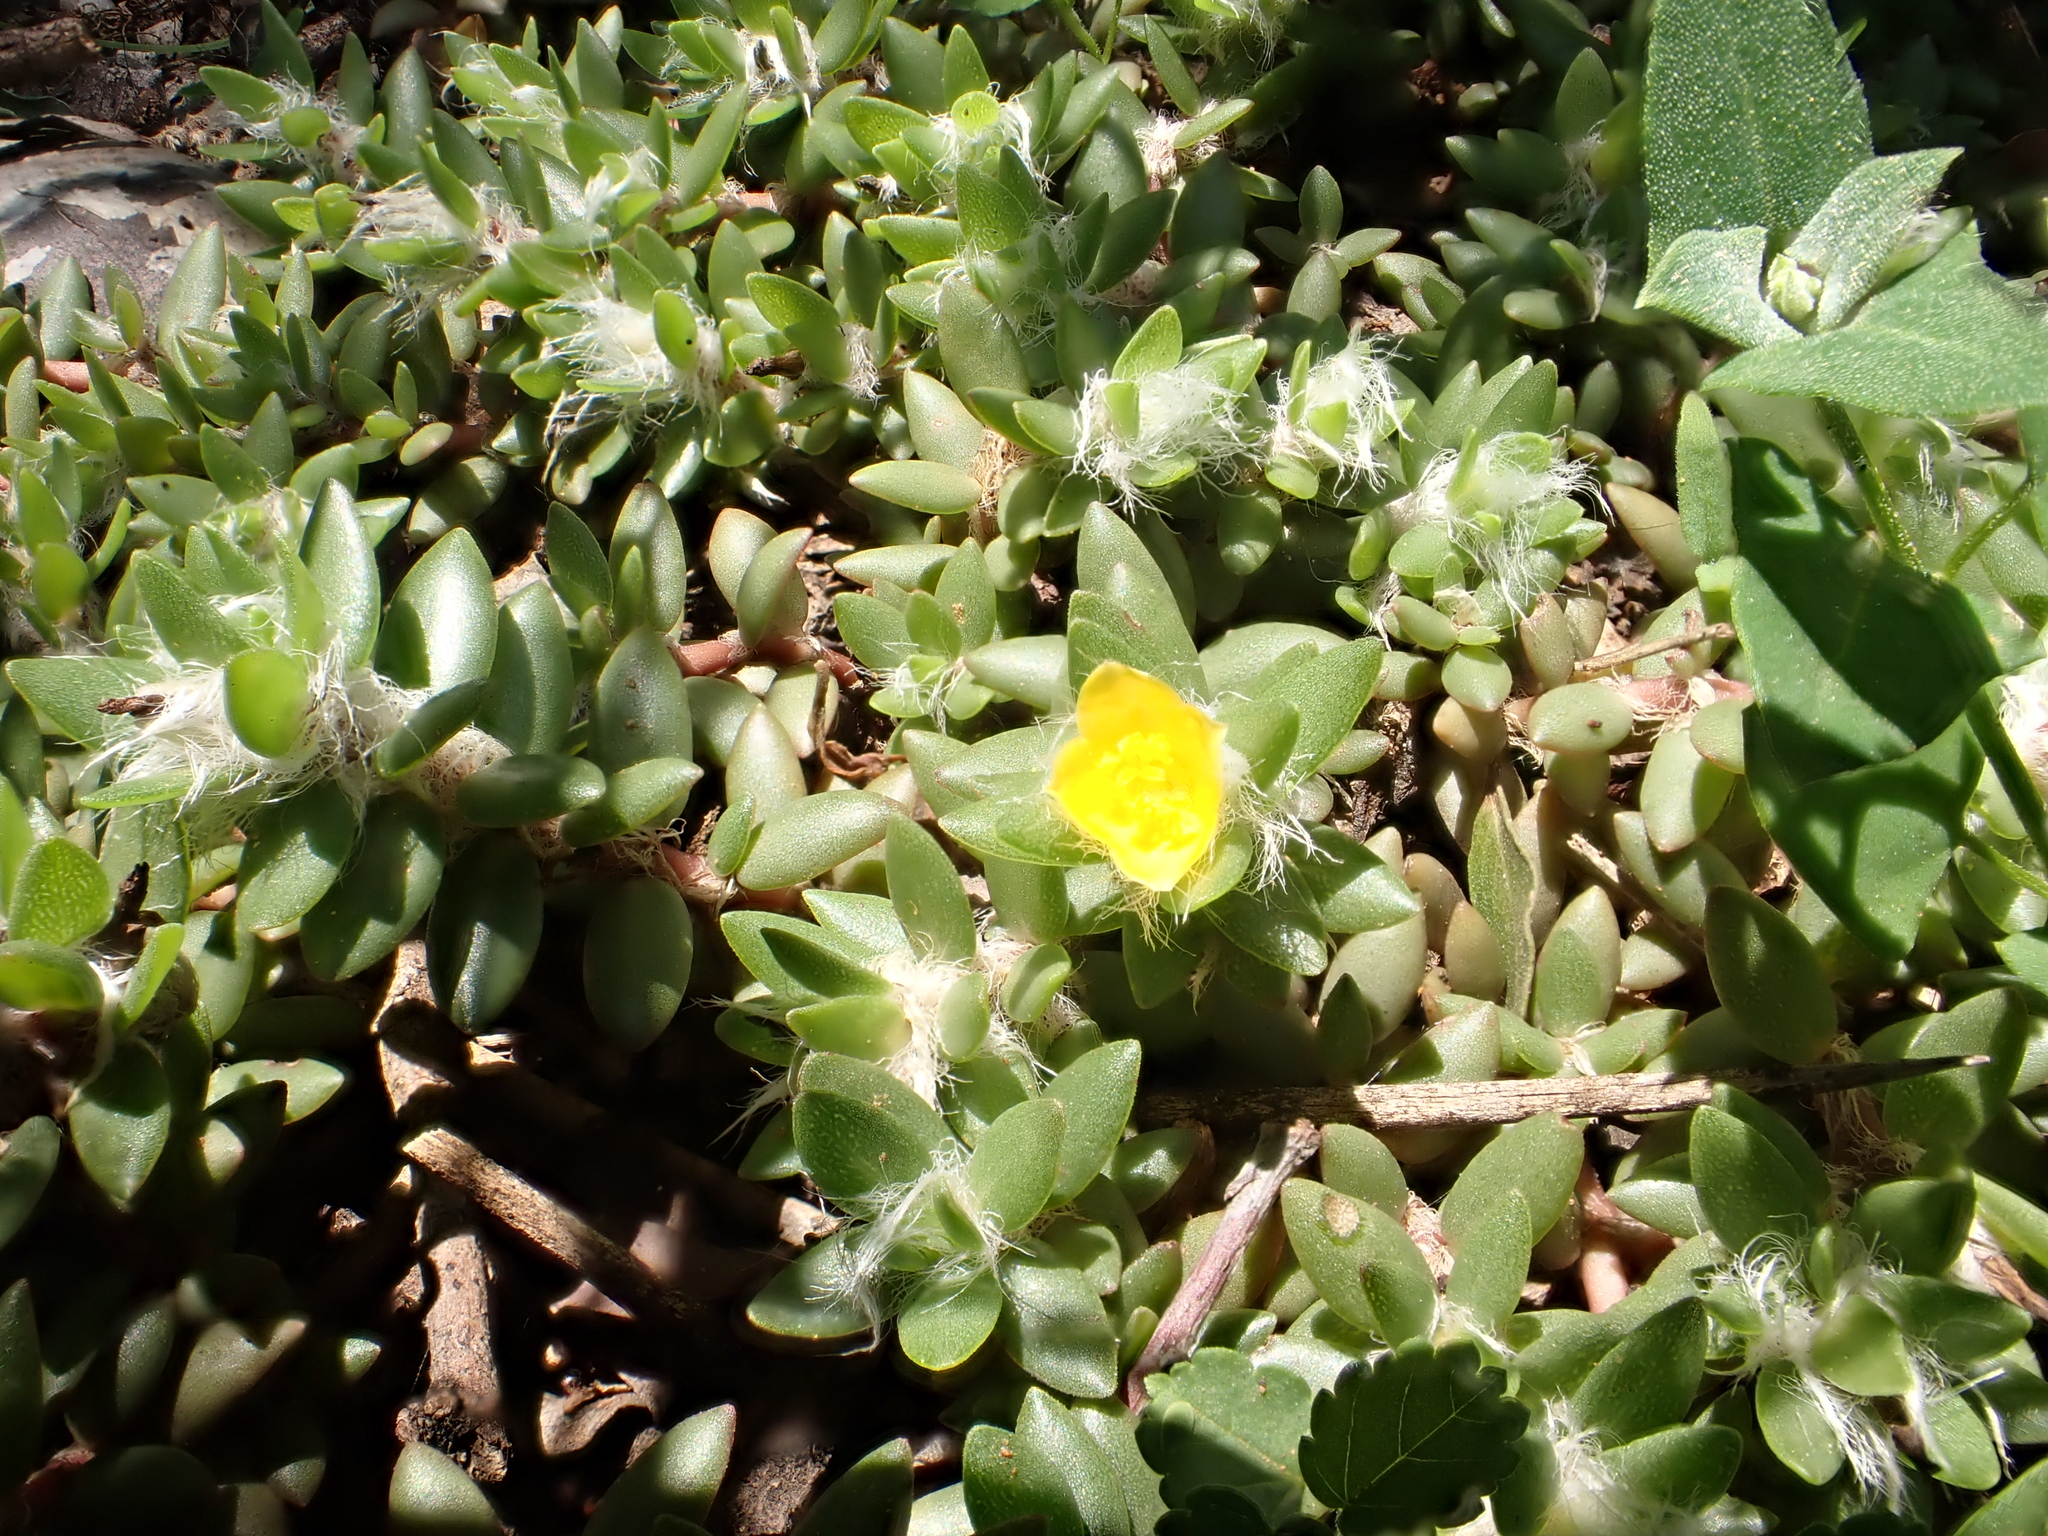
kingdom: Plantae
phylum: Tracheophyta
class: Magnoliopsida
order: Caryophyllales
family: Portulacaceae
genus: Portulaca
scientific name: Portulaca quadrifida
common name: Chickenweed
